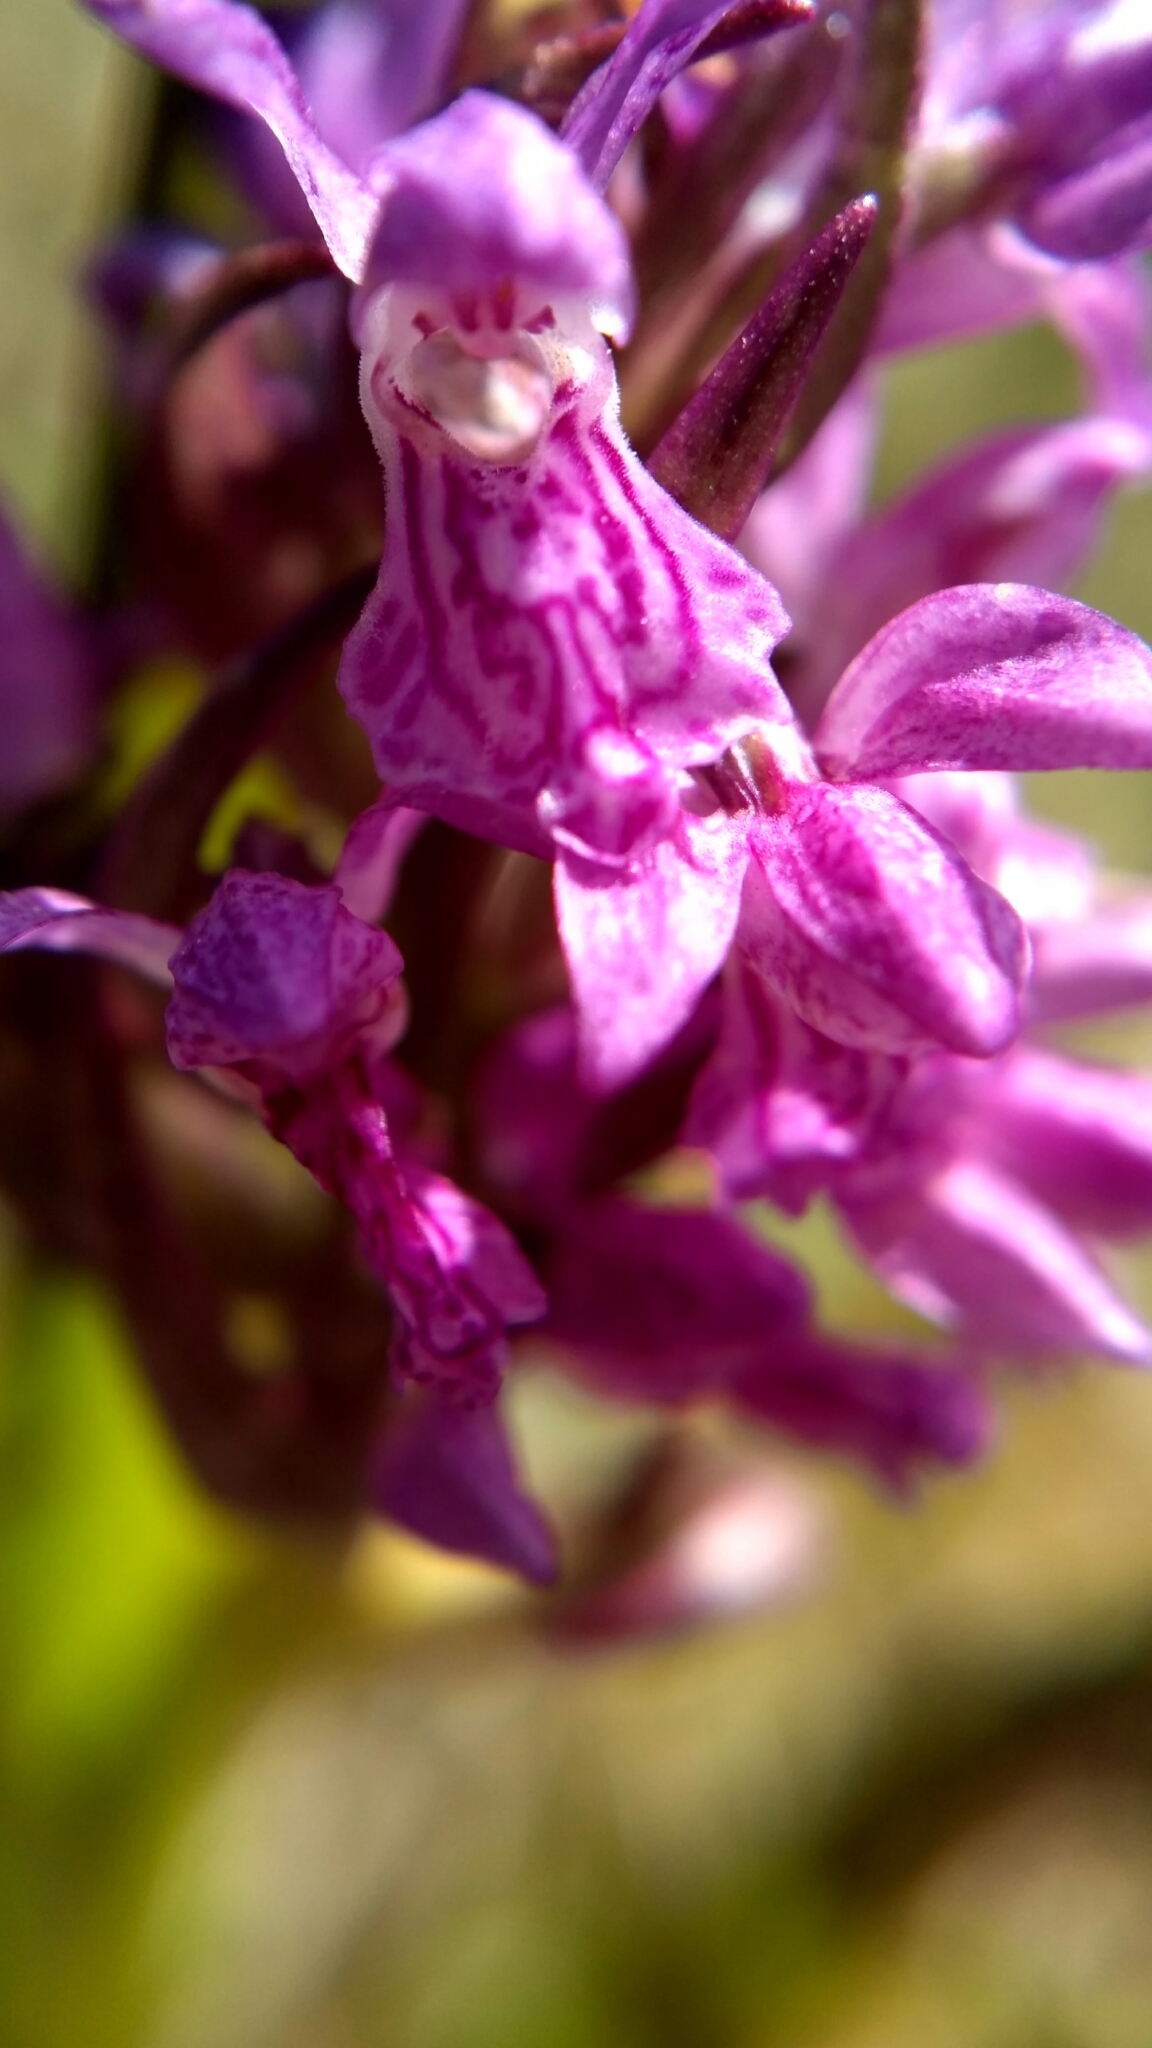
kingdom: Plantae
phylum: Tracheophyta
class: Liliopsida
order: Asparagales
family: Orchidaceae
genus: Dactylorhiza
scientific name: Dactylorhiza incarnata
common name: Early marsh-orchid
